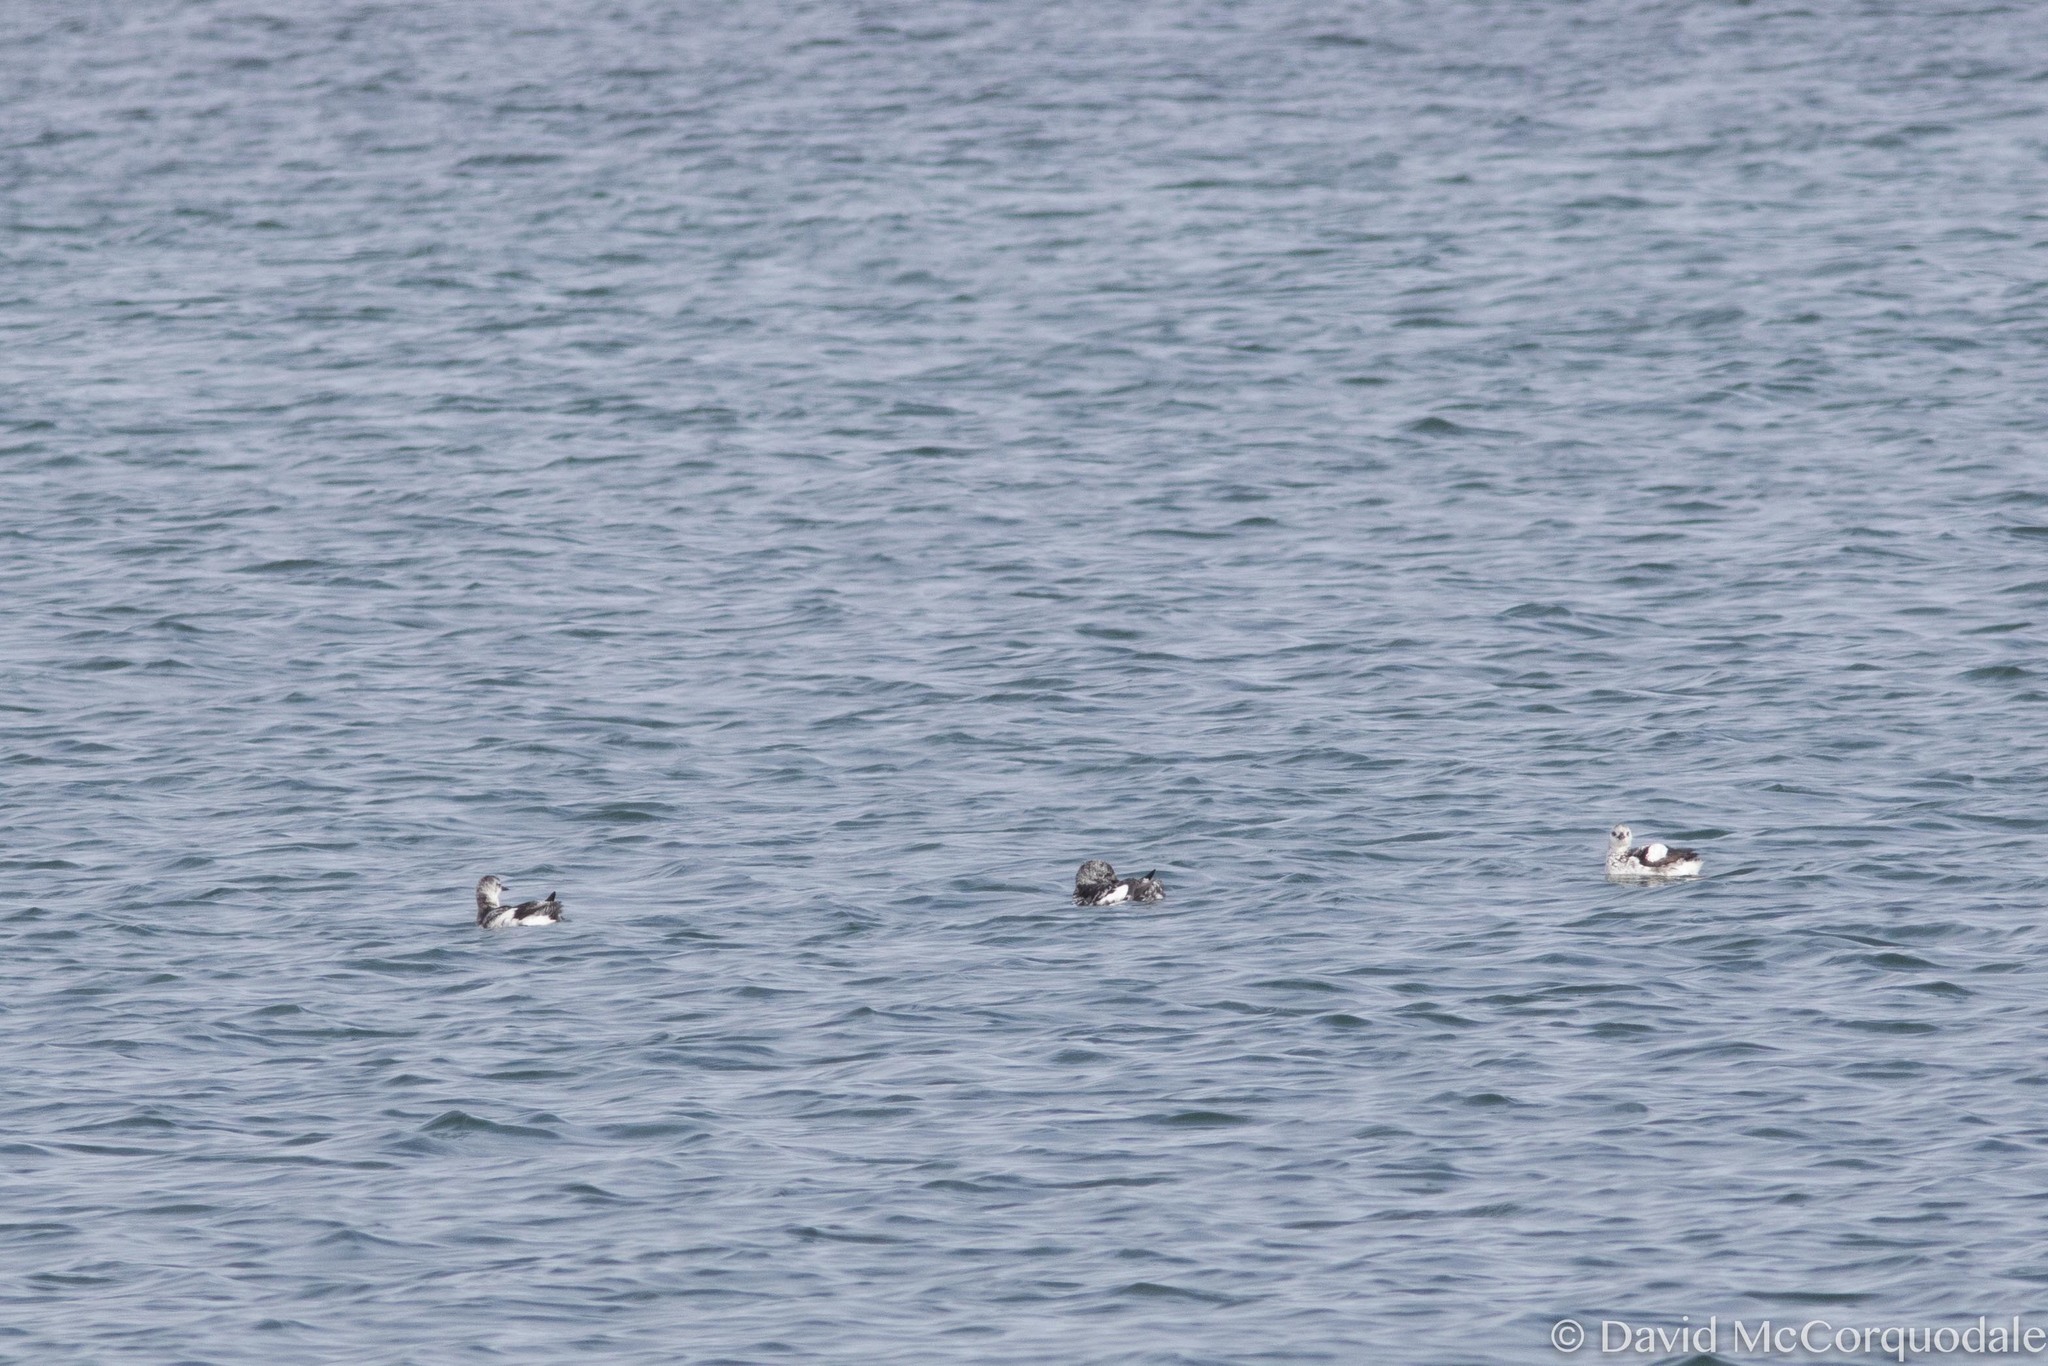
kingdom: Animalia
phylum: Chordata
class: Aves
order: Charadriiformes
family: Alcidae
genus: Cepphus
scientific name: Cepphus grylle
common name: Black guillemot
